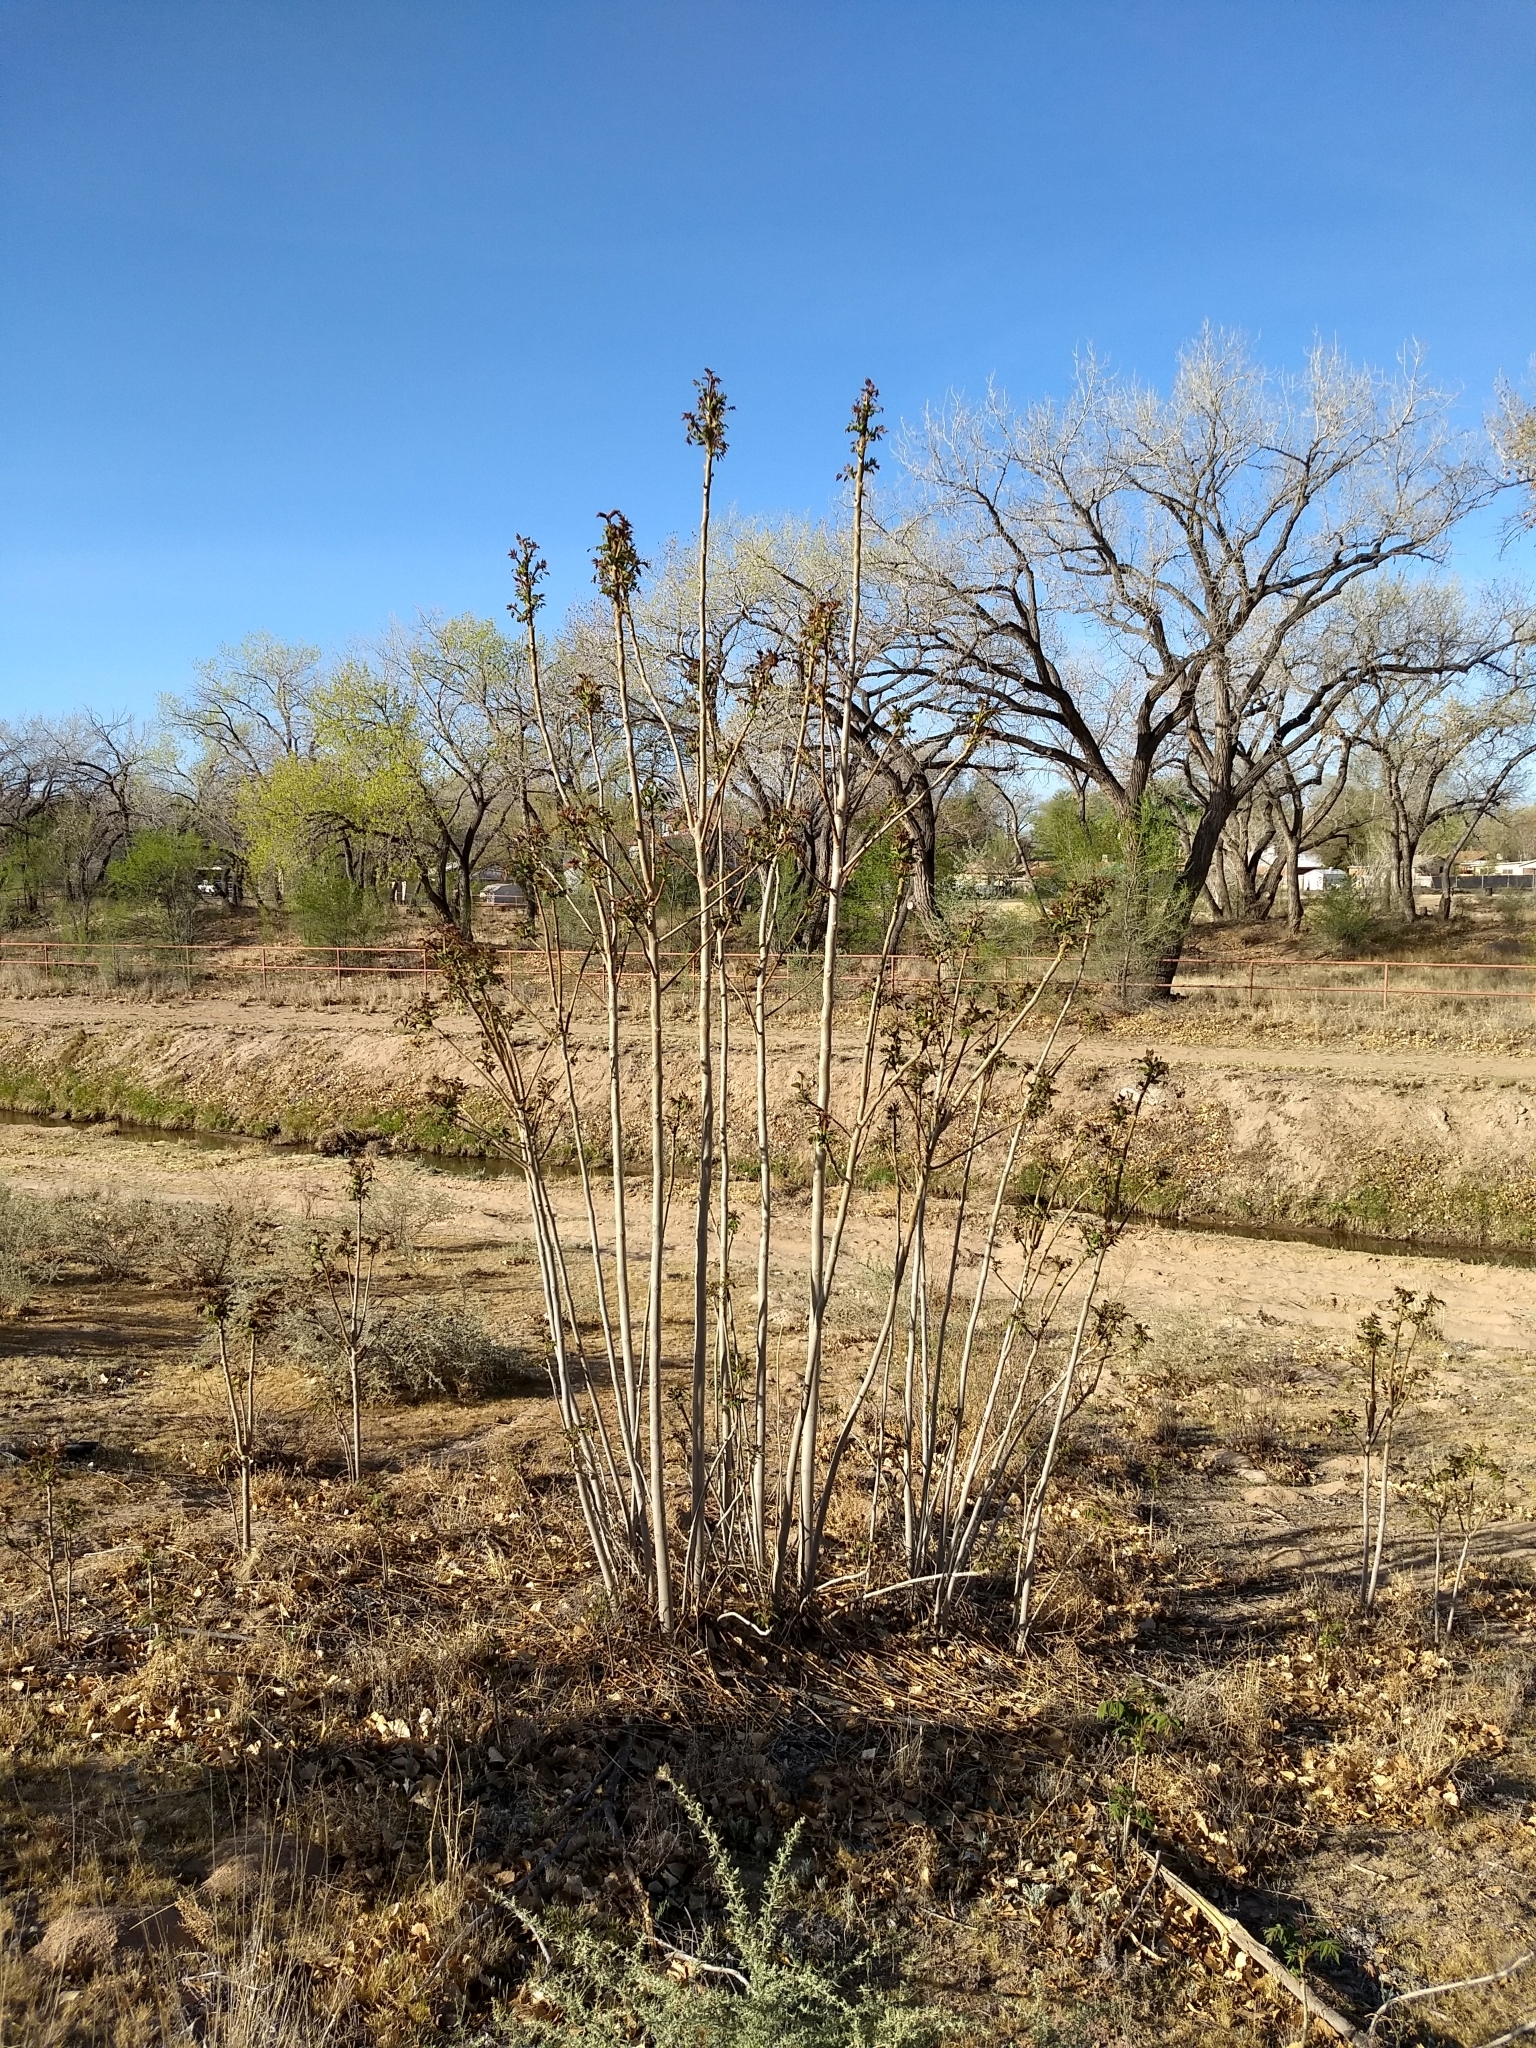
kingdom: Plantae
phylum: Tracheophyta
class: Magnoliopsida
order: Sapindales
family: Simaroubaceae
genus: Ailanthus
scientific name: Ailanthus altissima
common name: Tree-of-heaven
